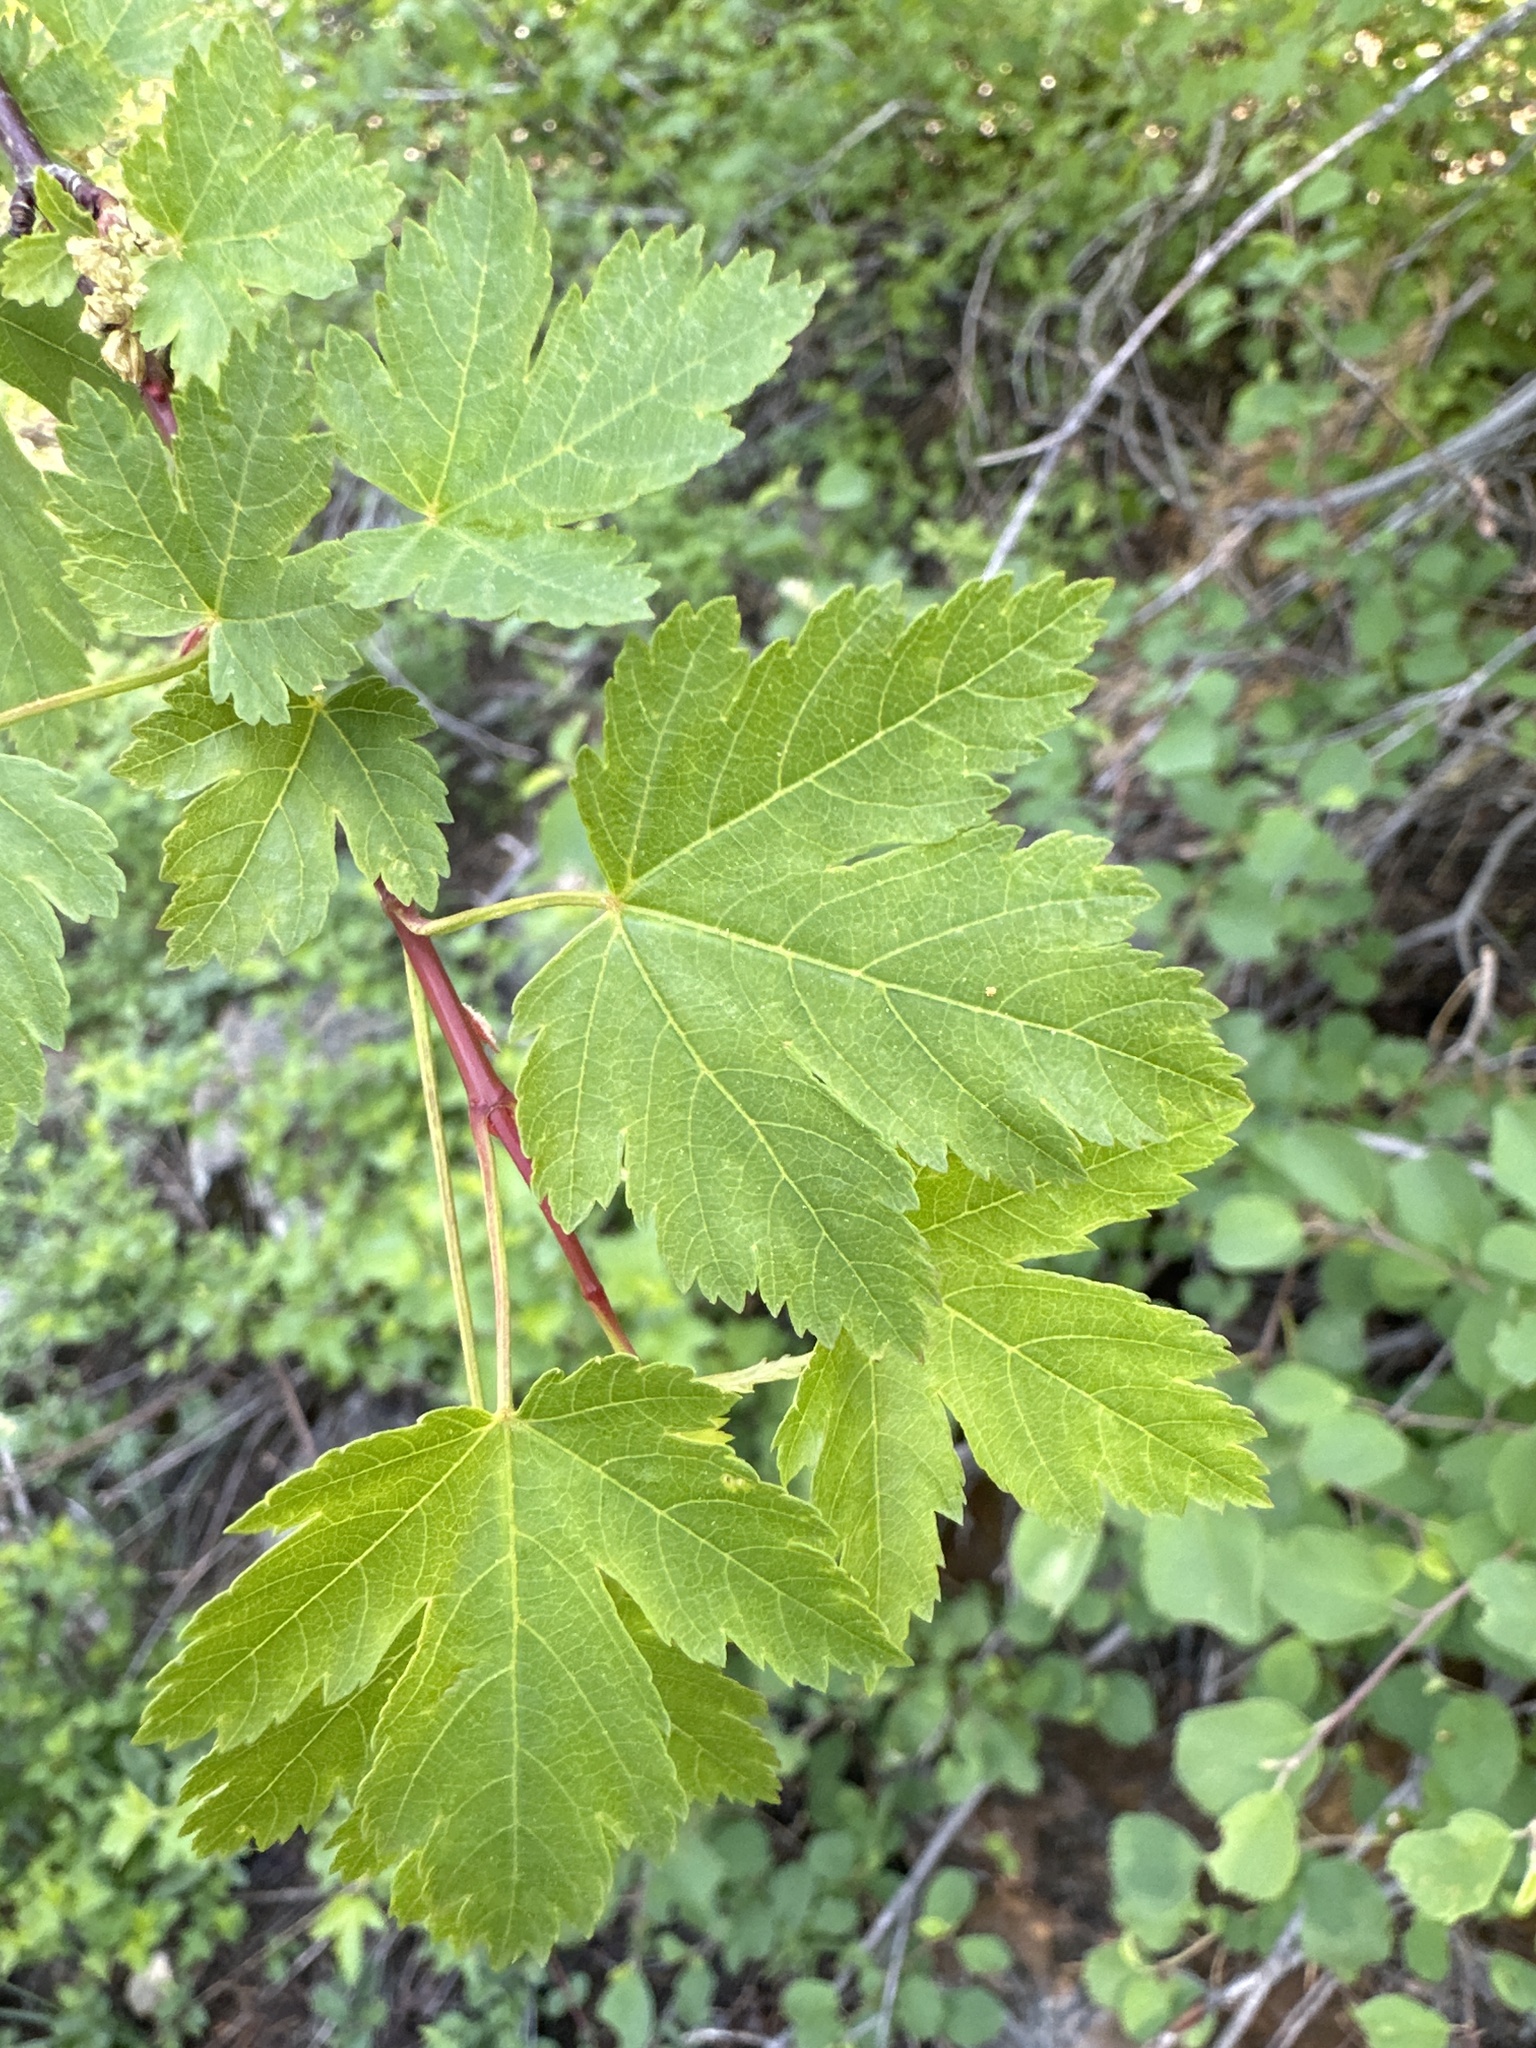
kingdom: Plantae
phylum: Tracheophyta
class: Magnoliopsida
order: Rosales
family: Rosaceae
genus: Physocarpus
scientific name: Physocarpus capitatus
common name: Pacific ninebark
